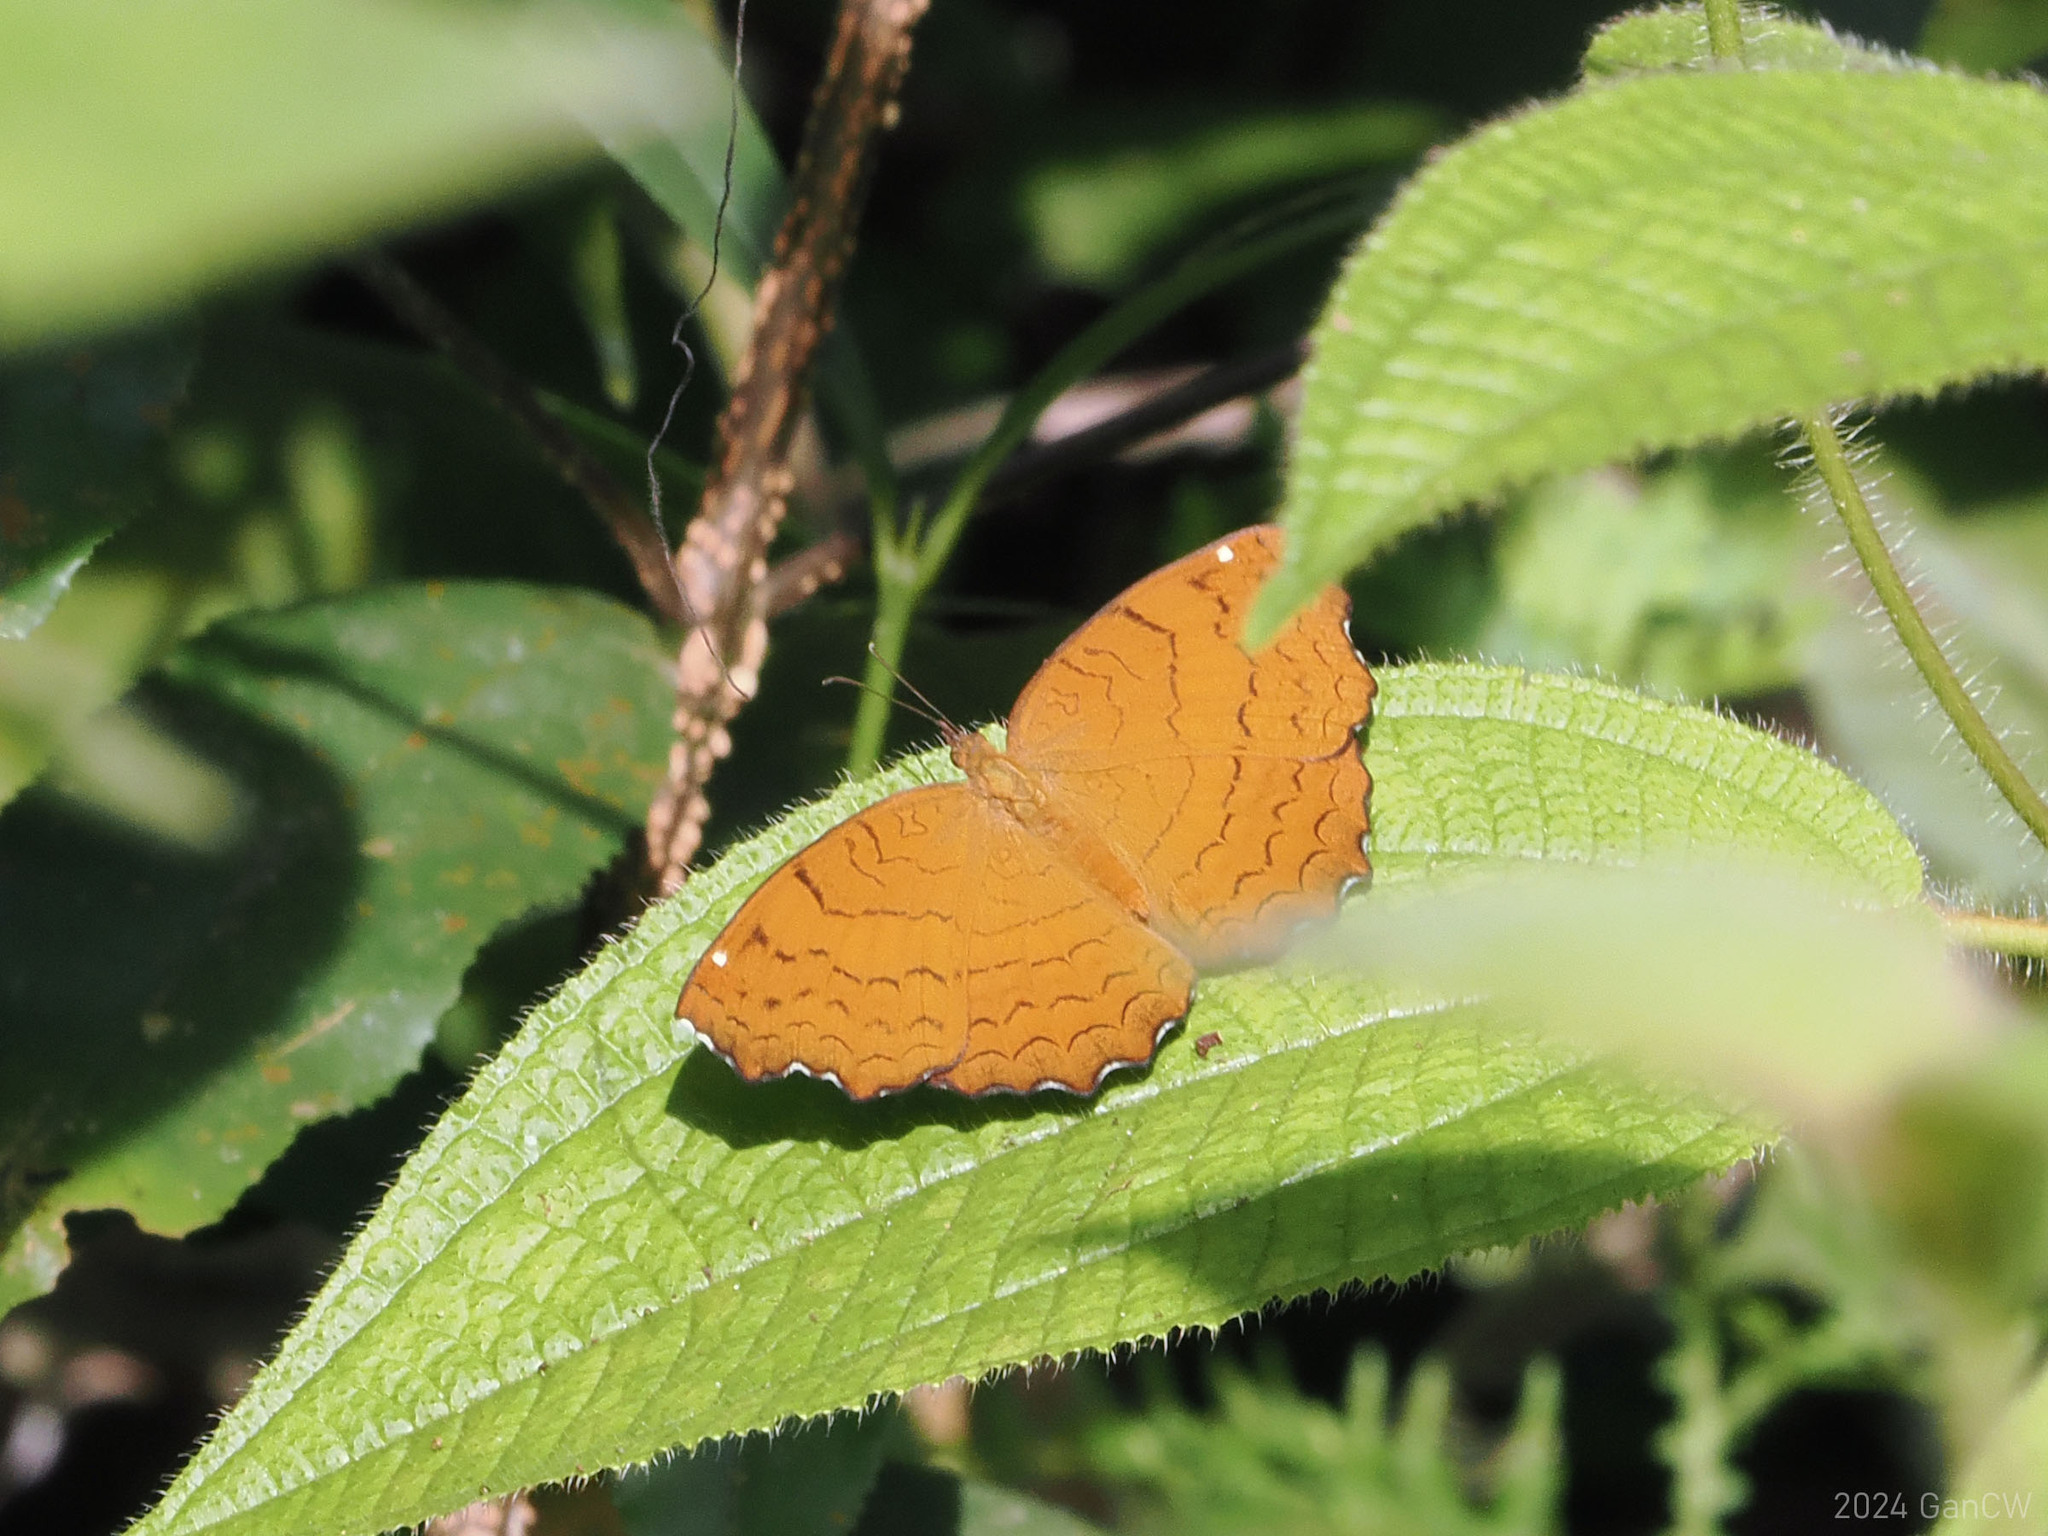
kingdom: Animalia
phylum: Arthropoda
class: Insecta
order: Lepidoptera
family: Nymphalidae
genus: Ariadne
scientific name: Ariadne ariadne
